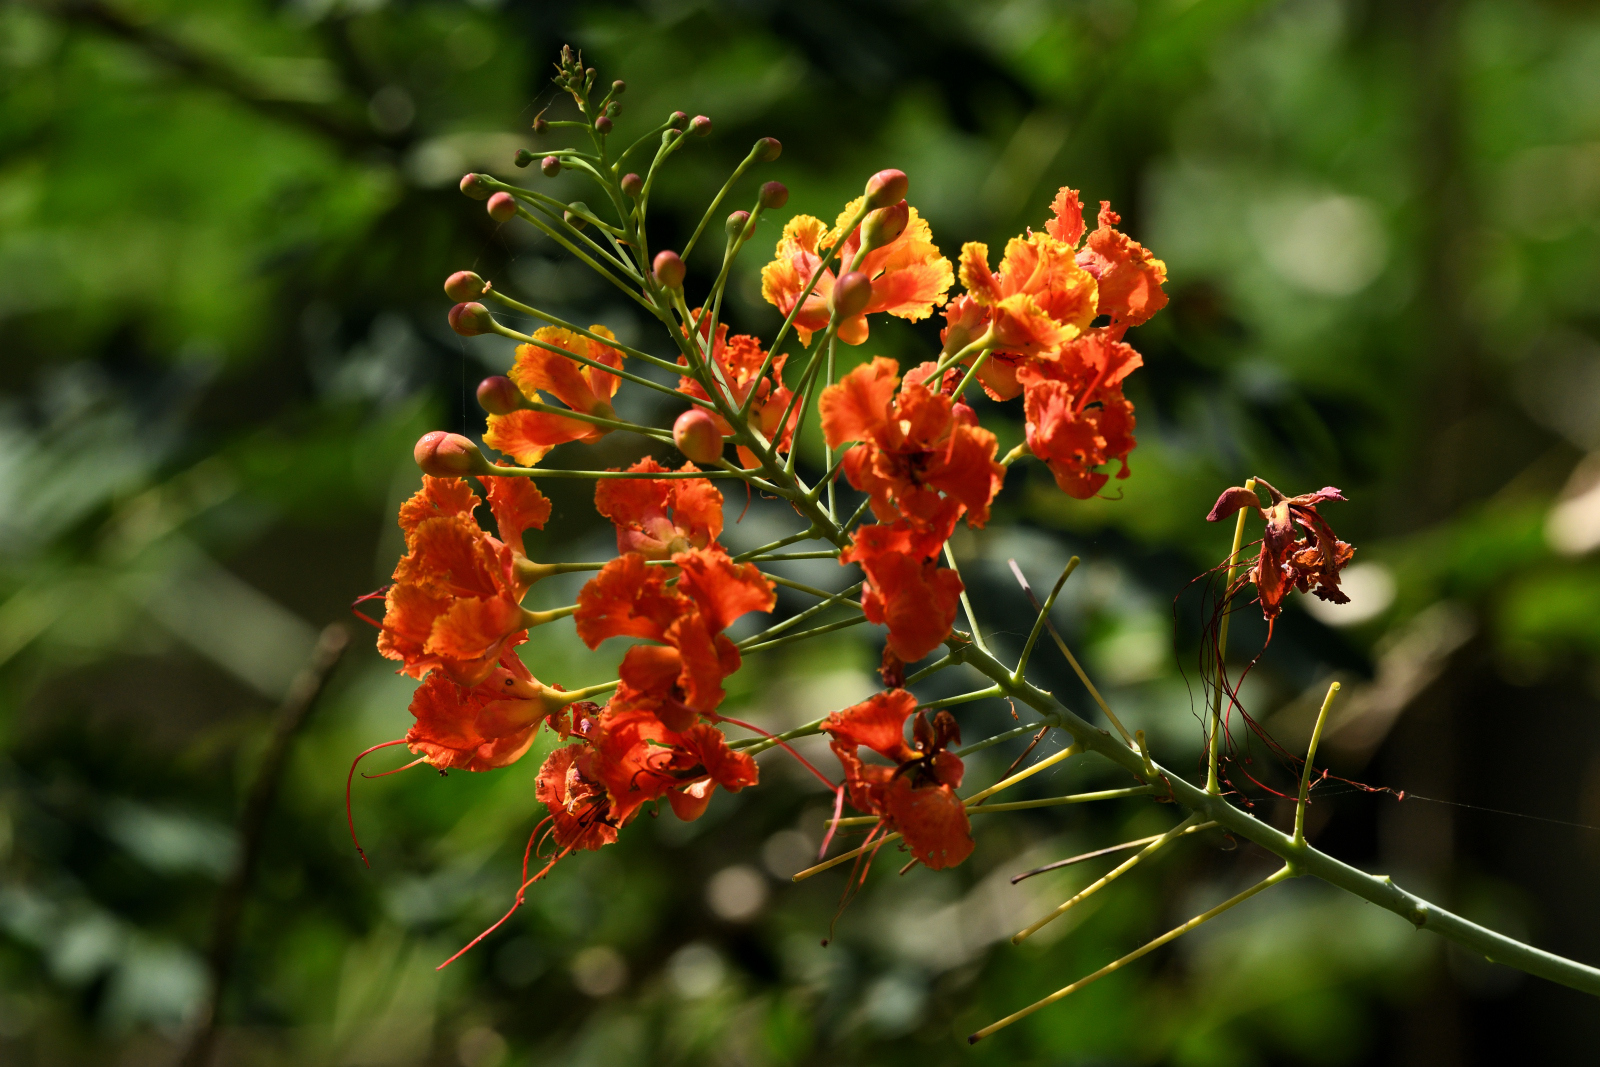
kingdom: Plantae
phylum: Tracheophyta
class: Magnoliopsida
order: Fabales
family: Fabaceae
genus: Caesalpinia
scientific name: Caesalpinia pulcherrima
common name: Pride-of-barbados
